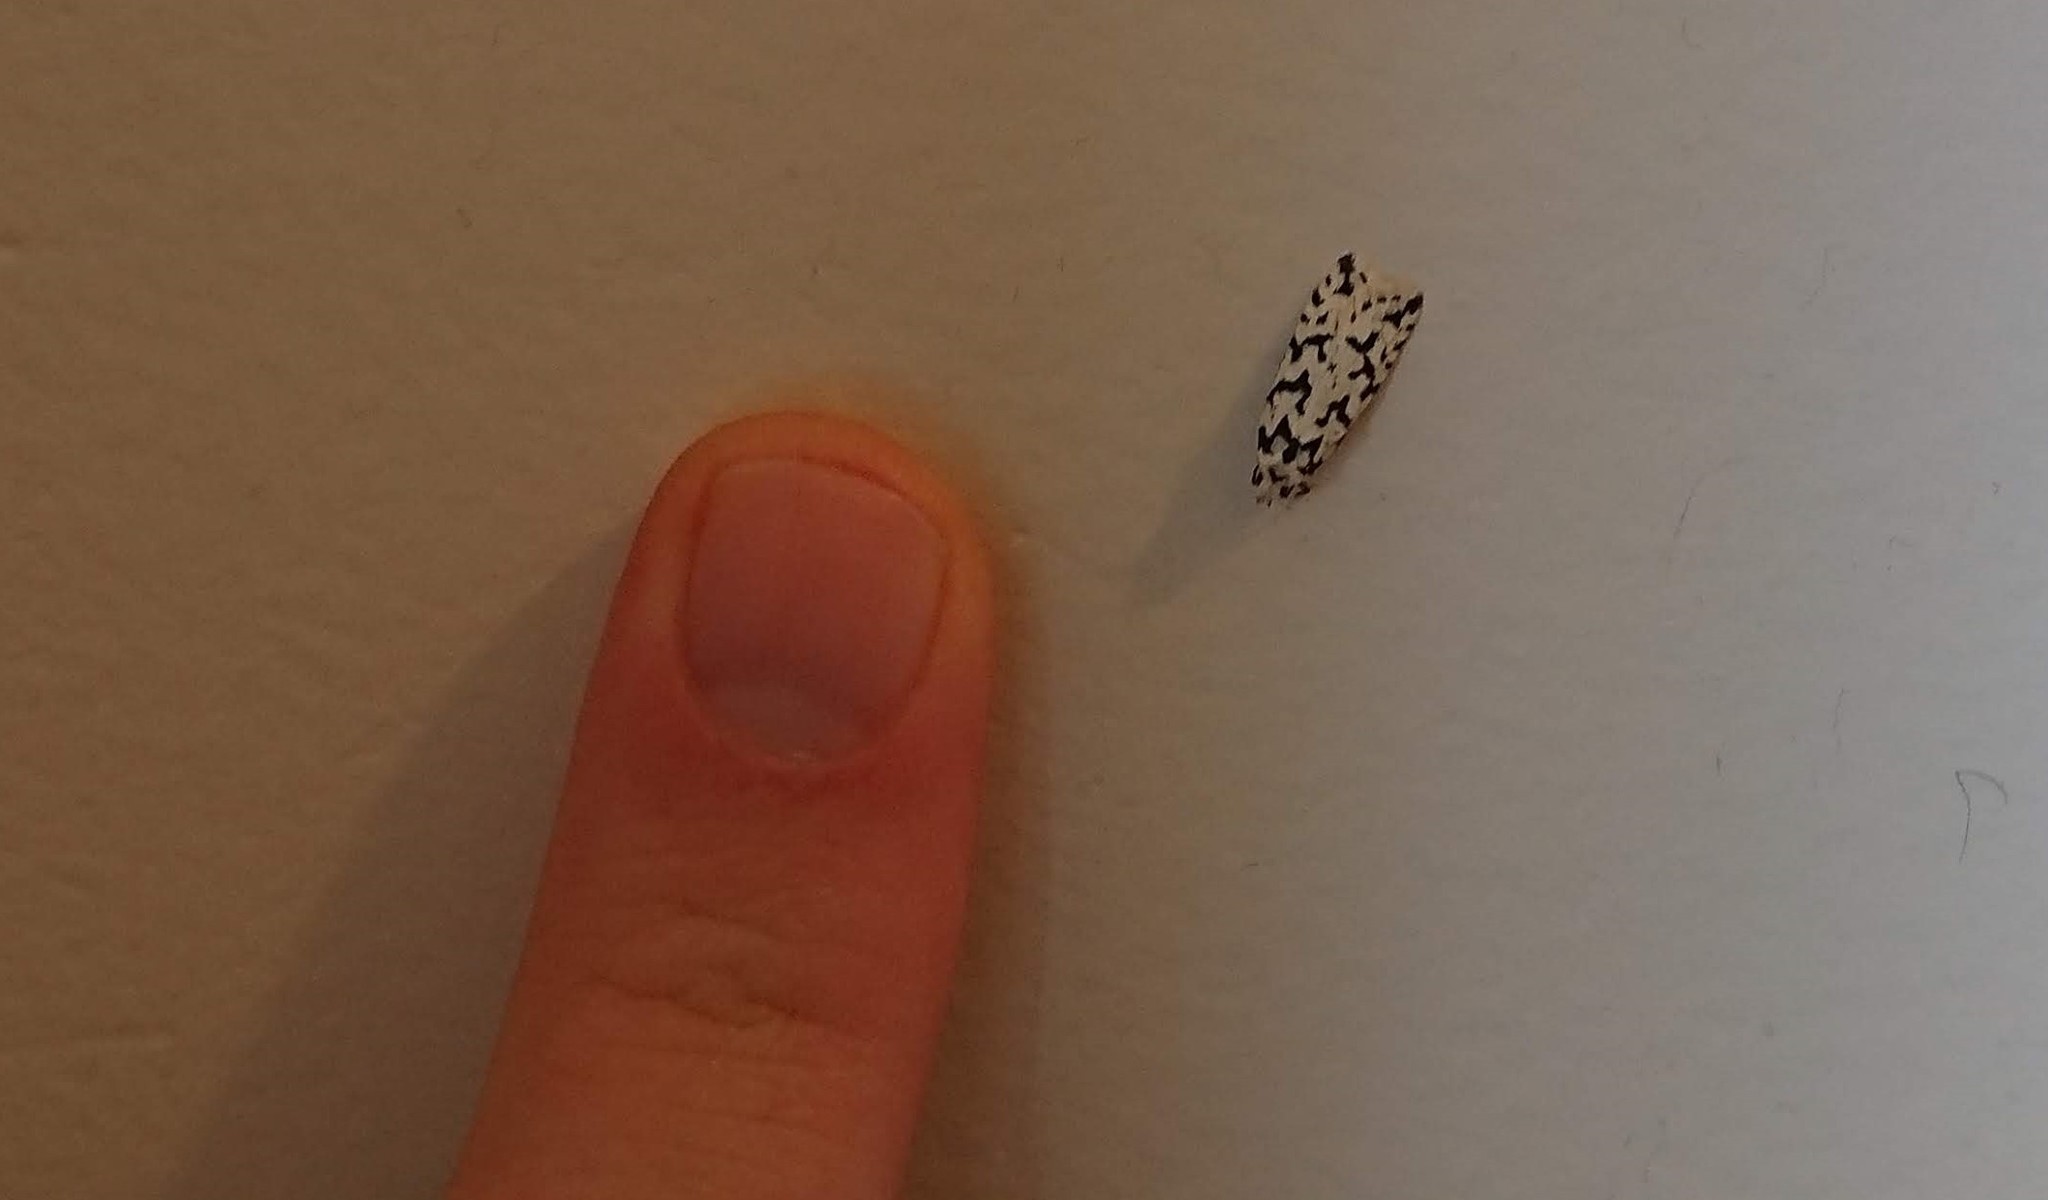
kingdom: Animalia
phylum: Arthropoda
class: Insecta
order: Lepidoptera
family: Oecophoridae
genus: Izatha
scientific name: Izatha katadiktya
